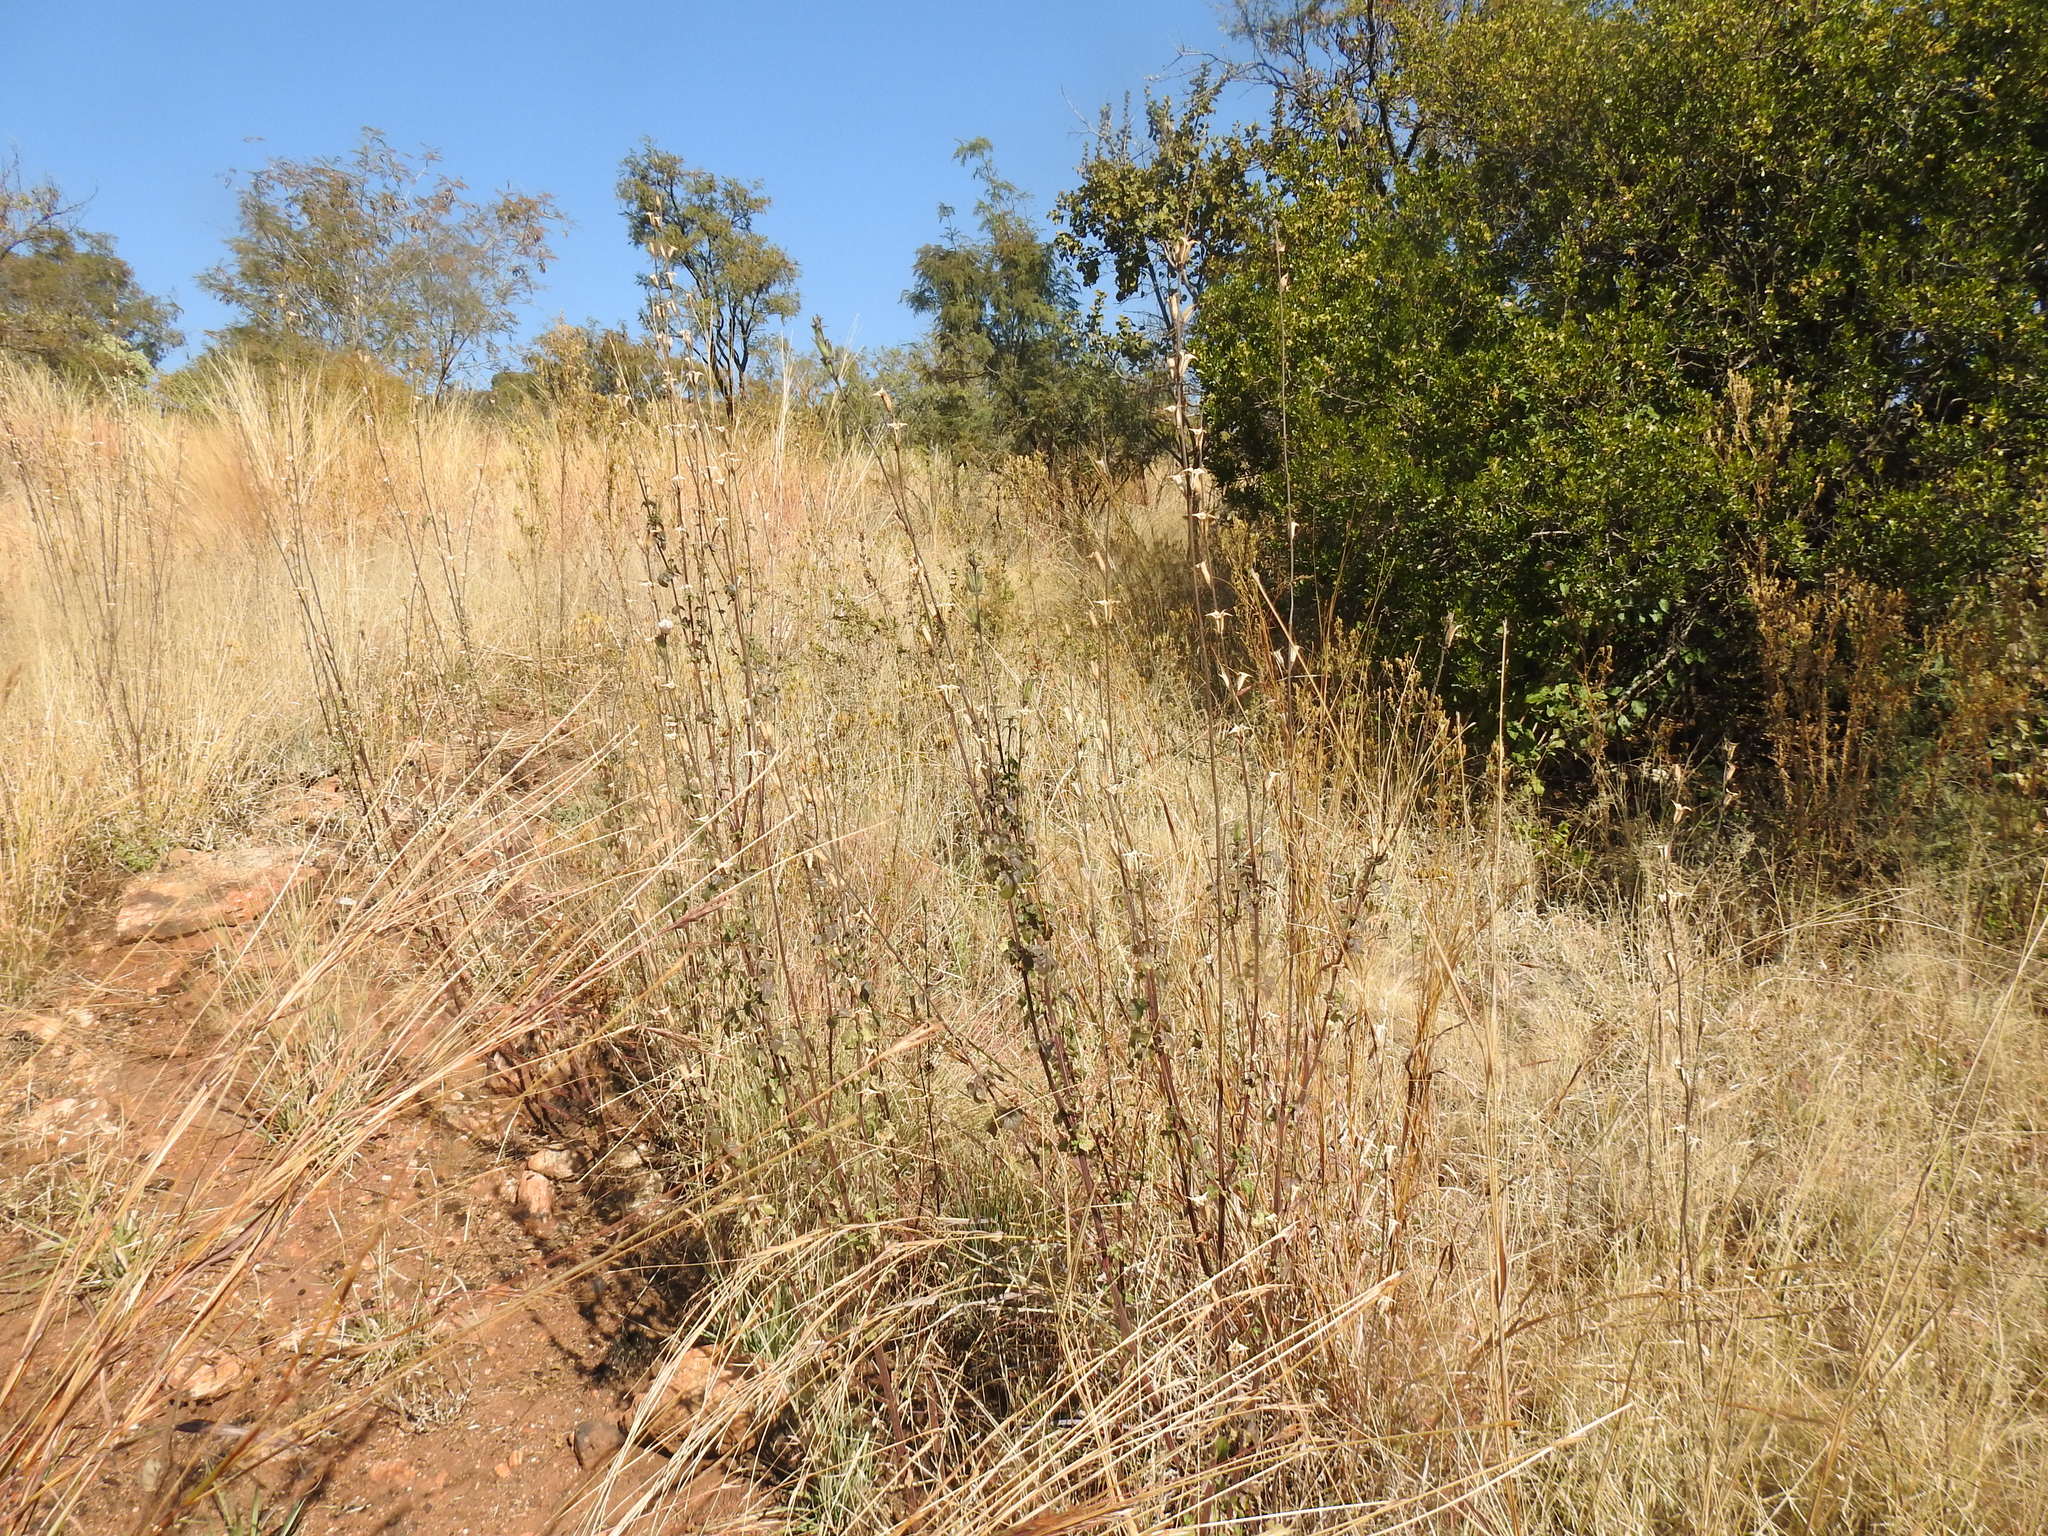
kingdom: Plantae
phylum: Tracheophyta
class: Magnoliopsida
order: Lamiales
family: Pedaliaceae
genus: Sesamum
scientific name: Sesamum trilobum
